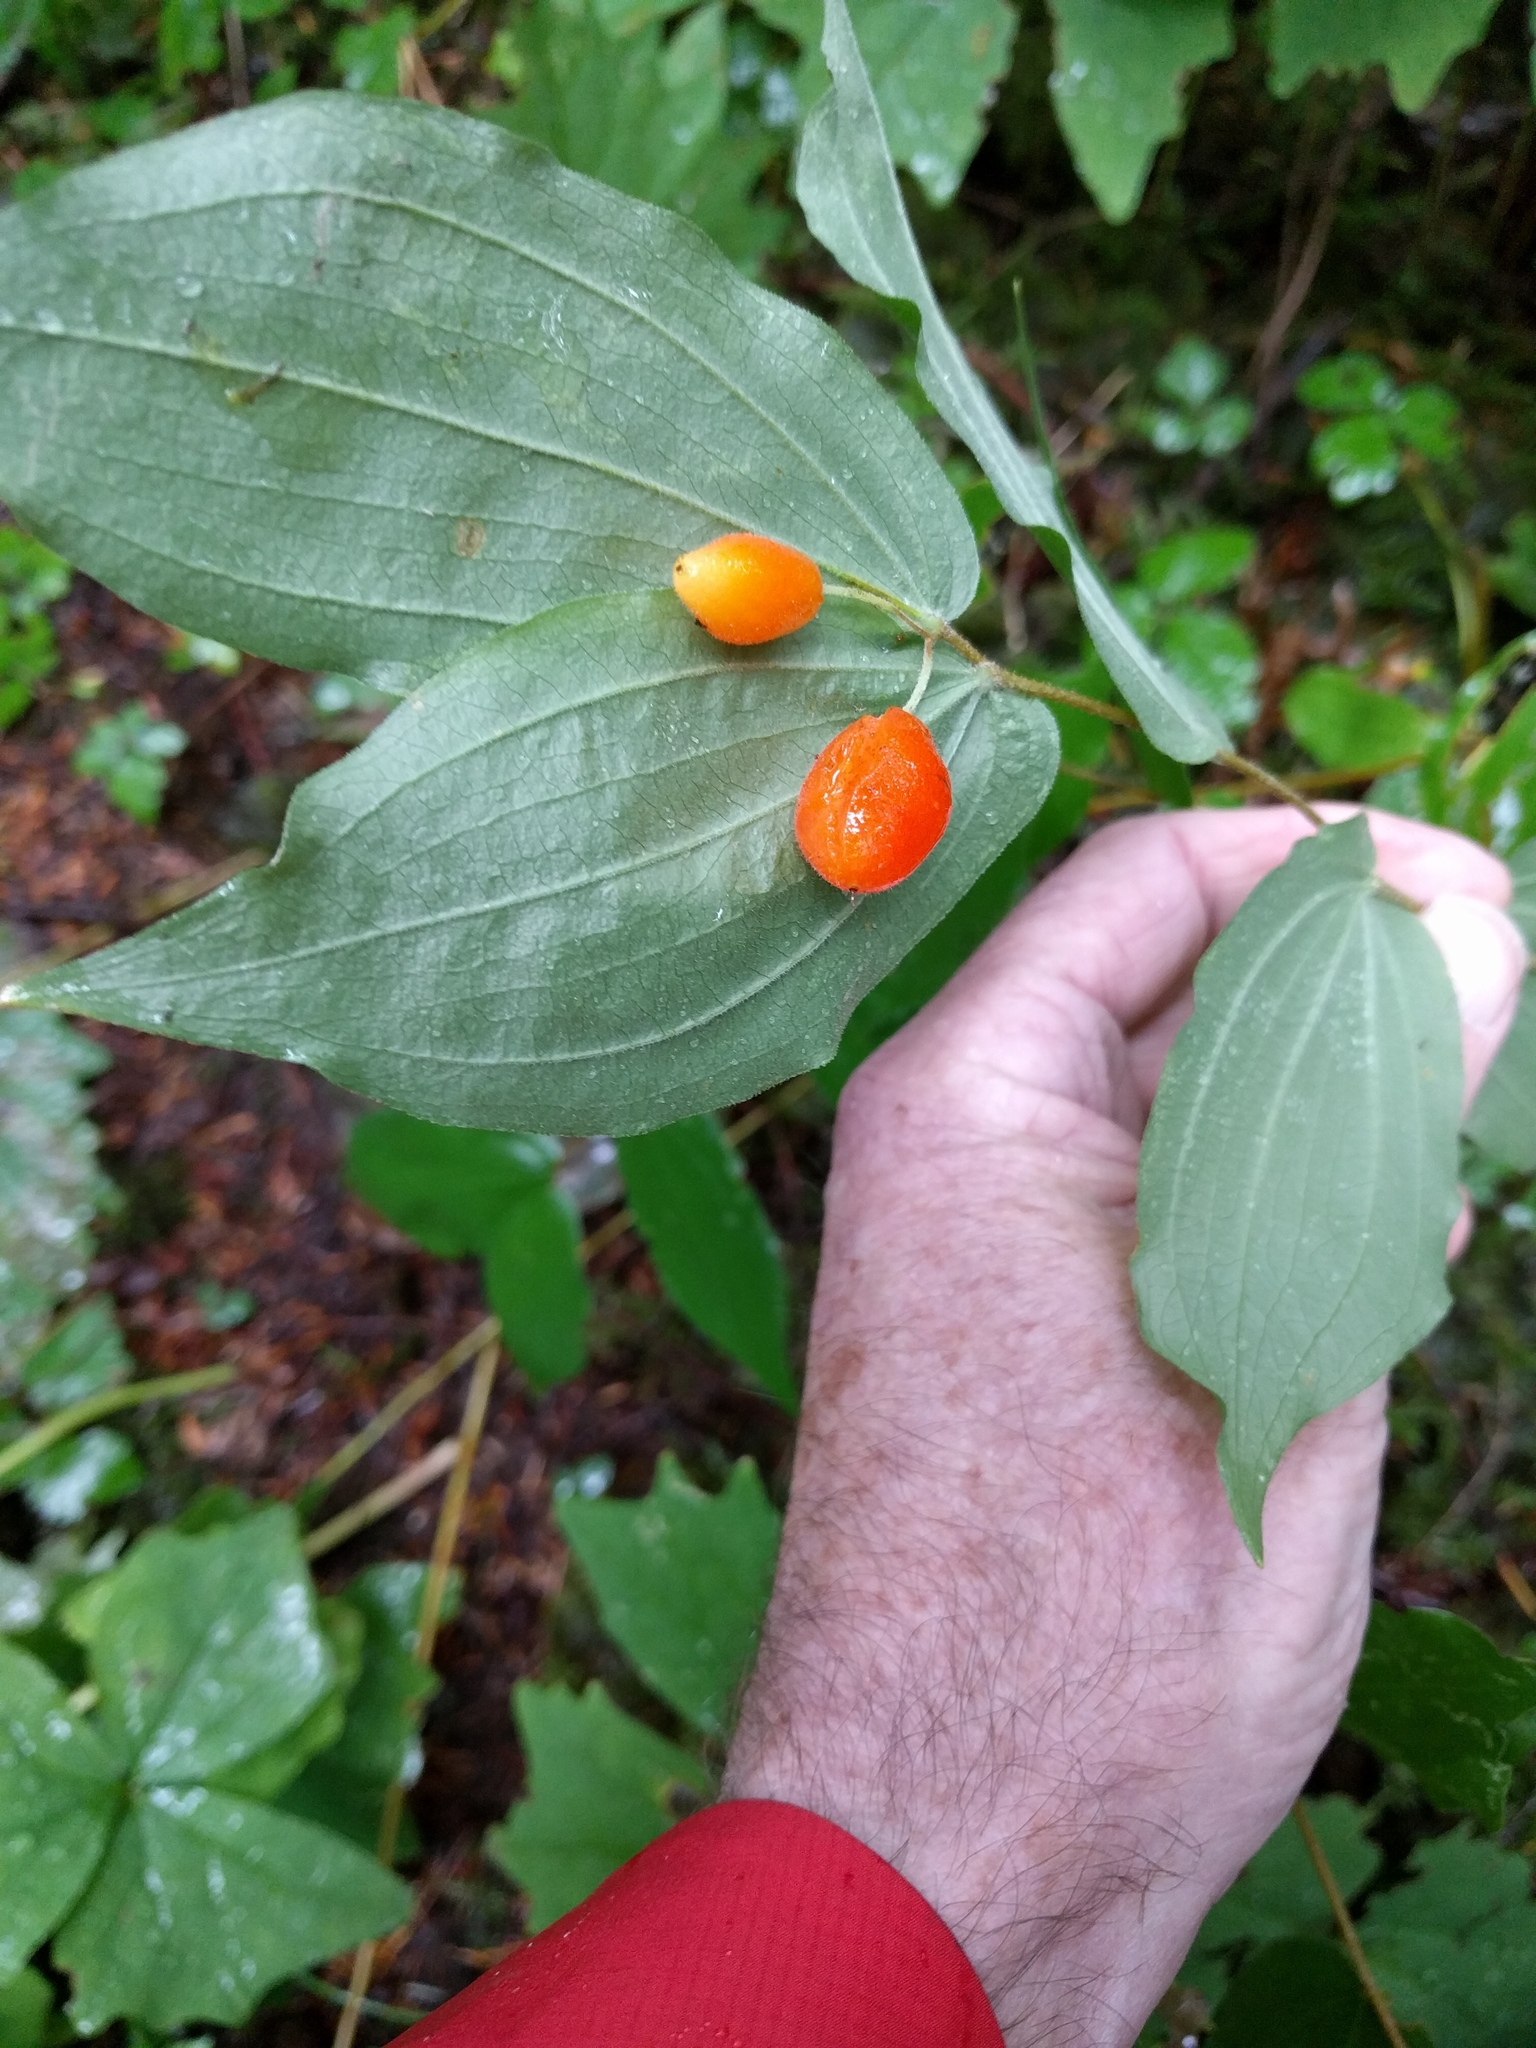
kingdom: Plantae
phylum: Tracheophyta
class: Liliopsida
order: Liliales
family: Liliaceae
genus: Prosartes
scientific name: Prosartes hookeri
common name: Fairy-bells
